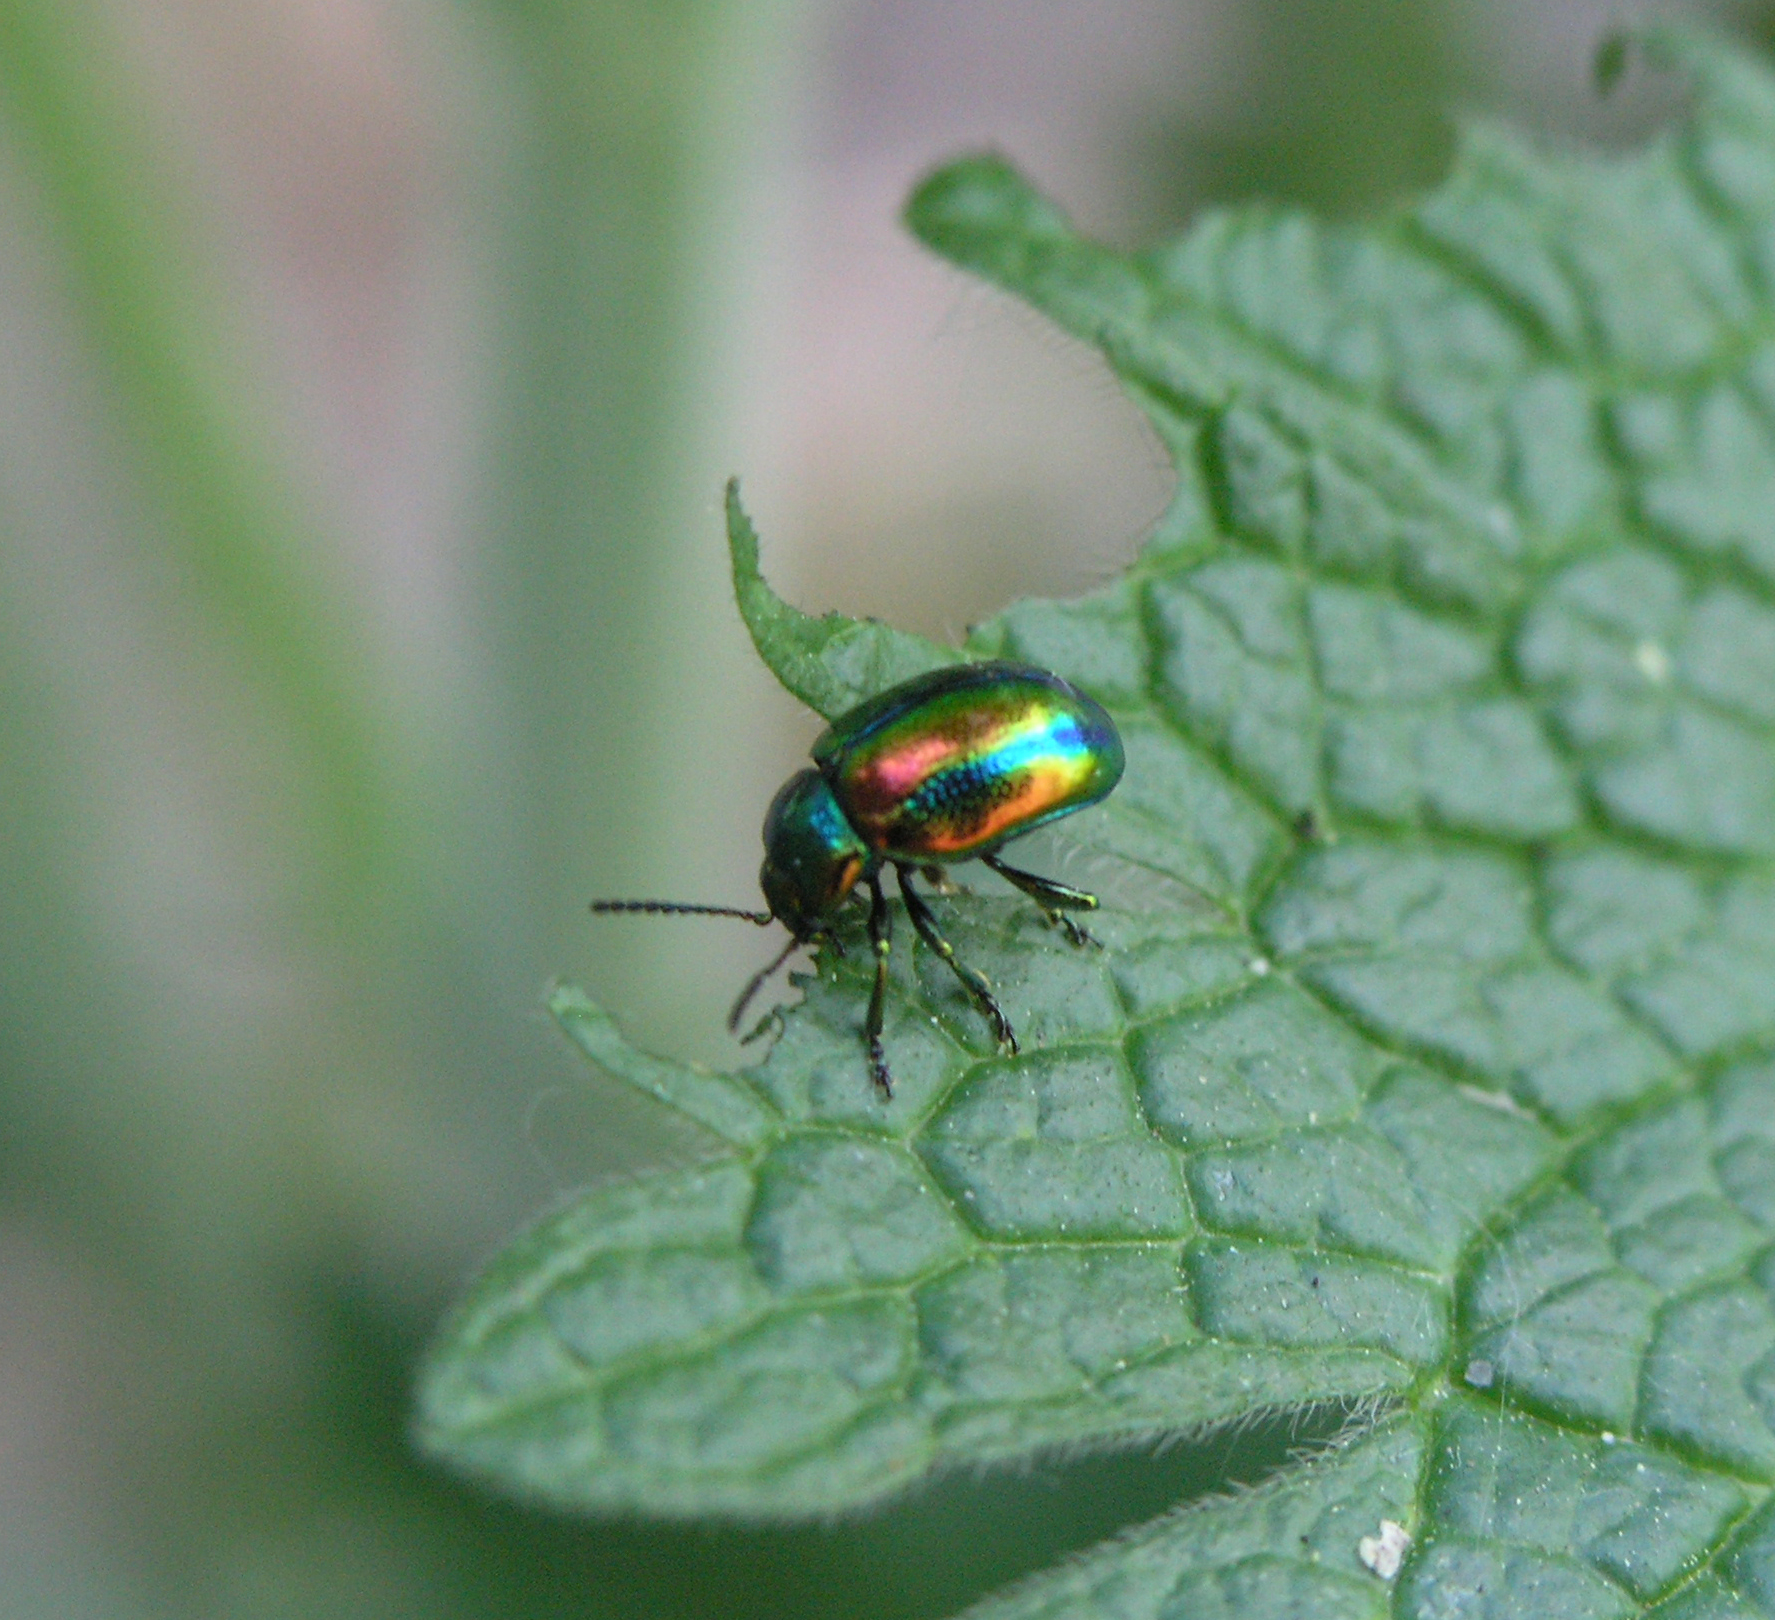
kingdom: Animalia
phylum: Arthropoda
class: Insecta
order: Coleoptera
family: Chrysomelidae
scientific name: Chrysomelidae
